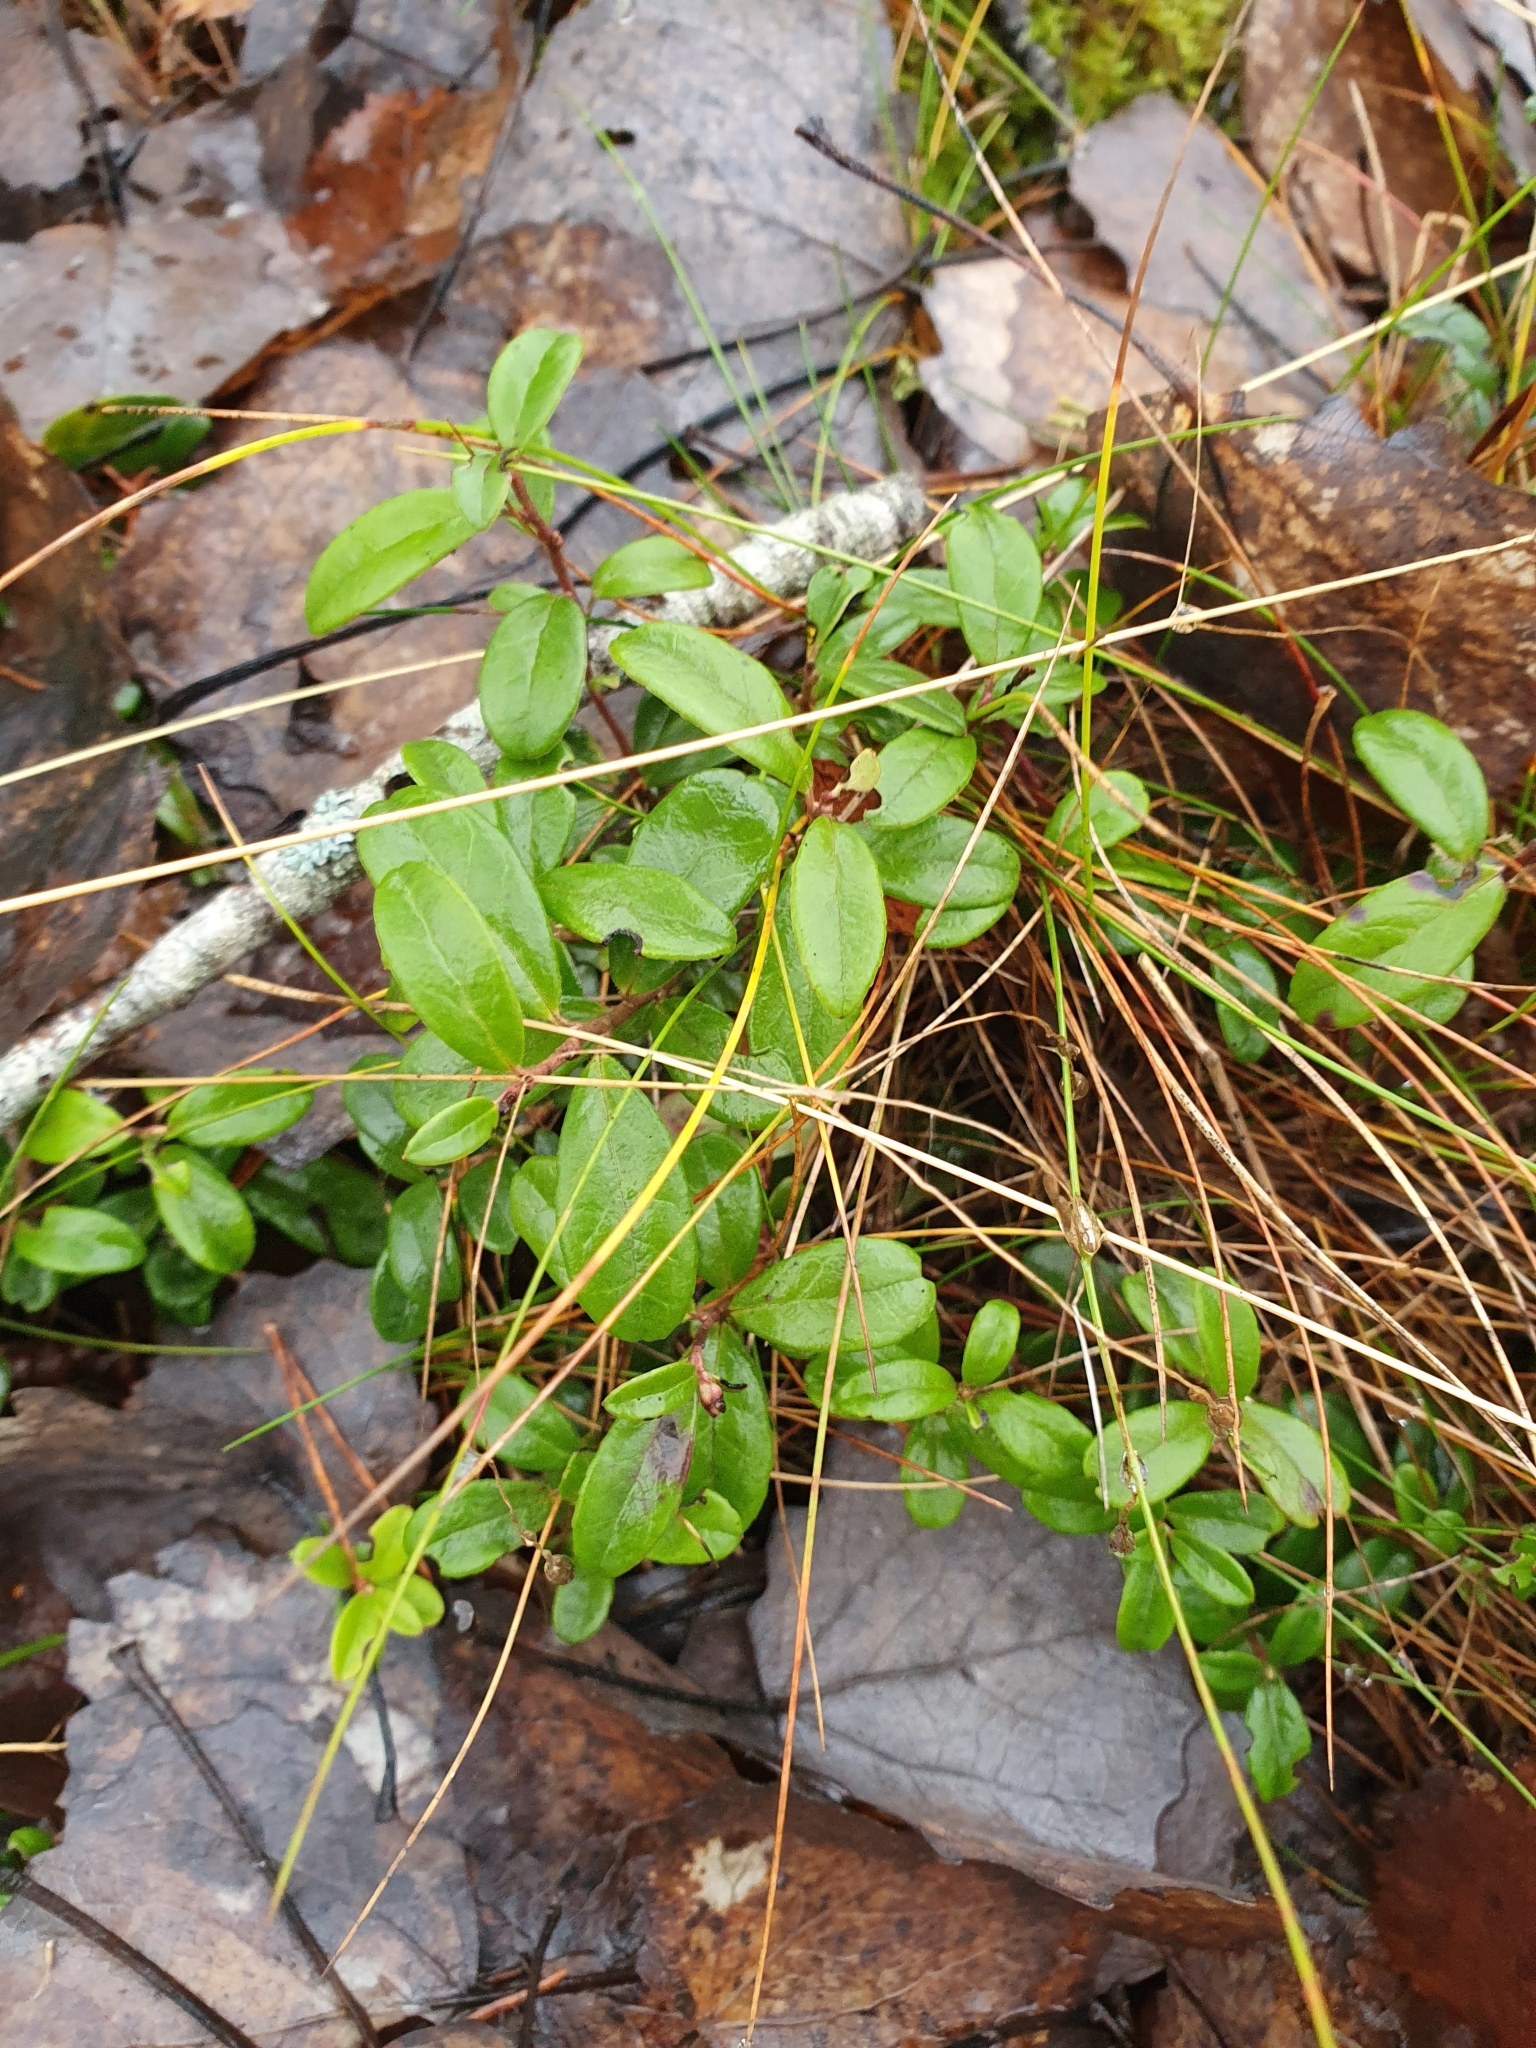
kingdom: Plantae
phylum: Tracheophyta
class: Magnoliopsida
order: Ericales
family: Ericaceae
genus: Vaccinium
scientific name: Vaccinium vitis-idaea
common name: Cowberry
